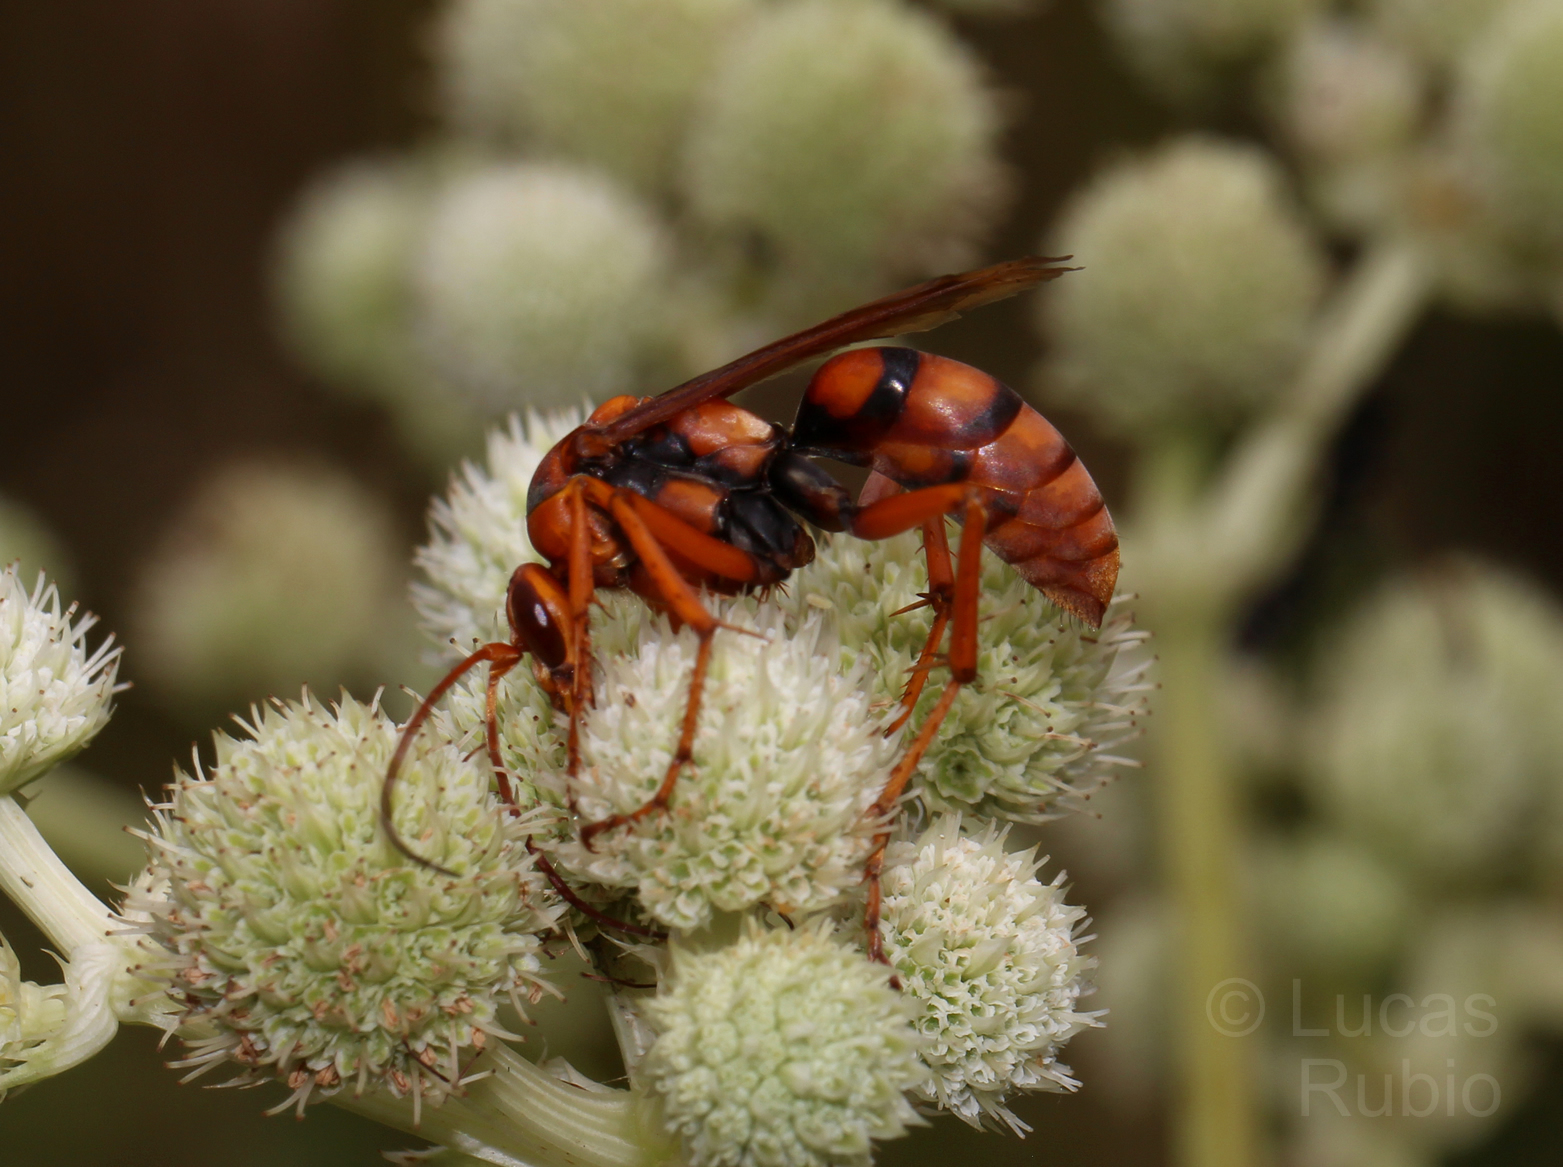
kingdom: Animalia
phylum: Arthropoda
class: Insecta
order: Hymenoptera
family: Pompilidae
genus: Tachypompilus
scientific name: Tachypompilus erubescens
